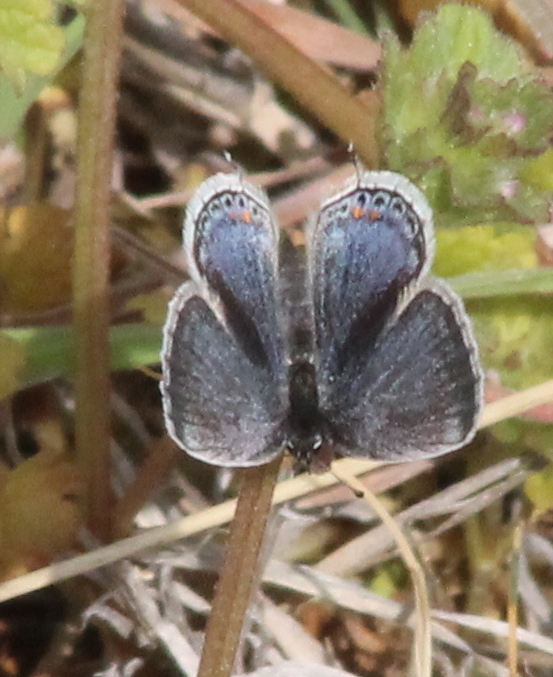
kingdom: Animalia
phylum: Arthropoda
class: Insecta
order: Lepidoptera
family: Lycaenidae
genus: Elkalyce
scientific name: Elkalyce comyntas
